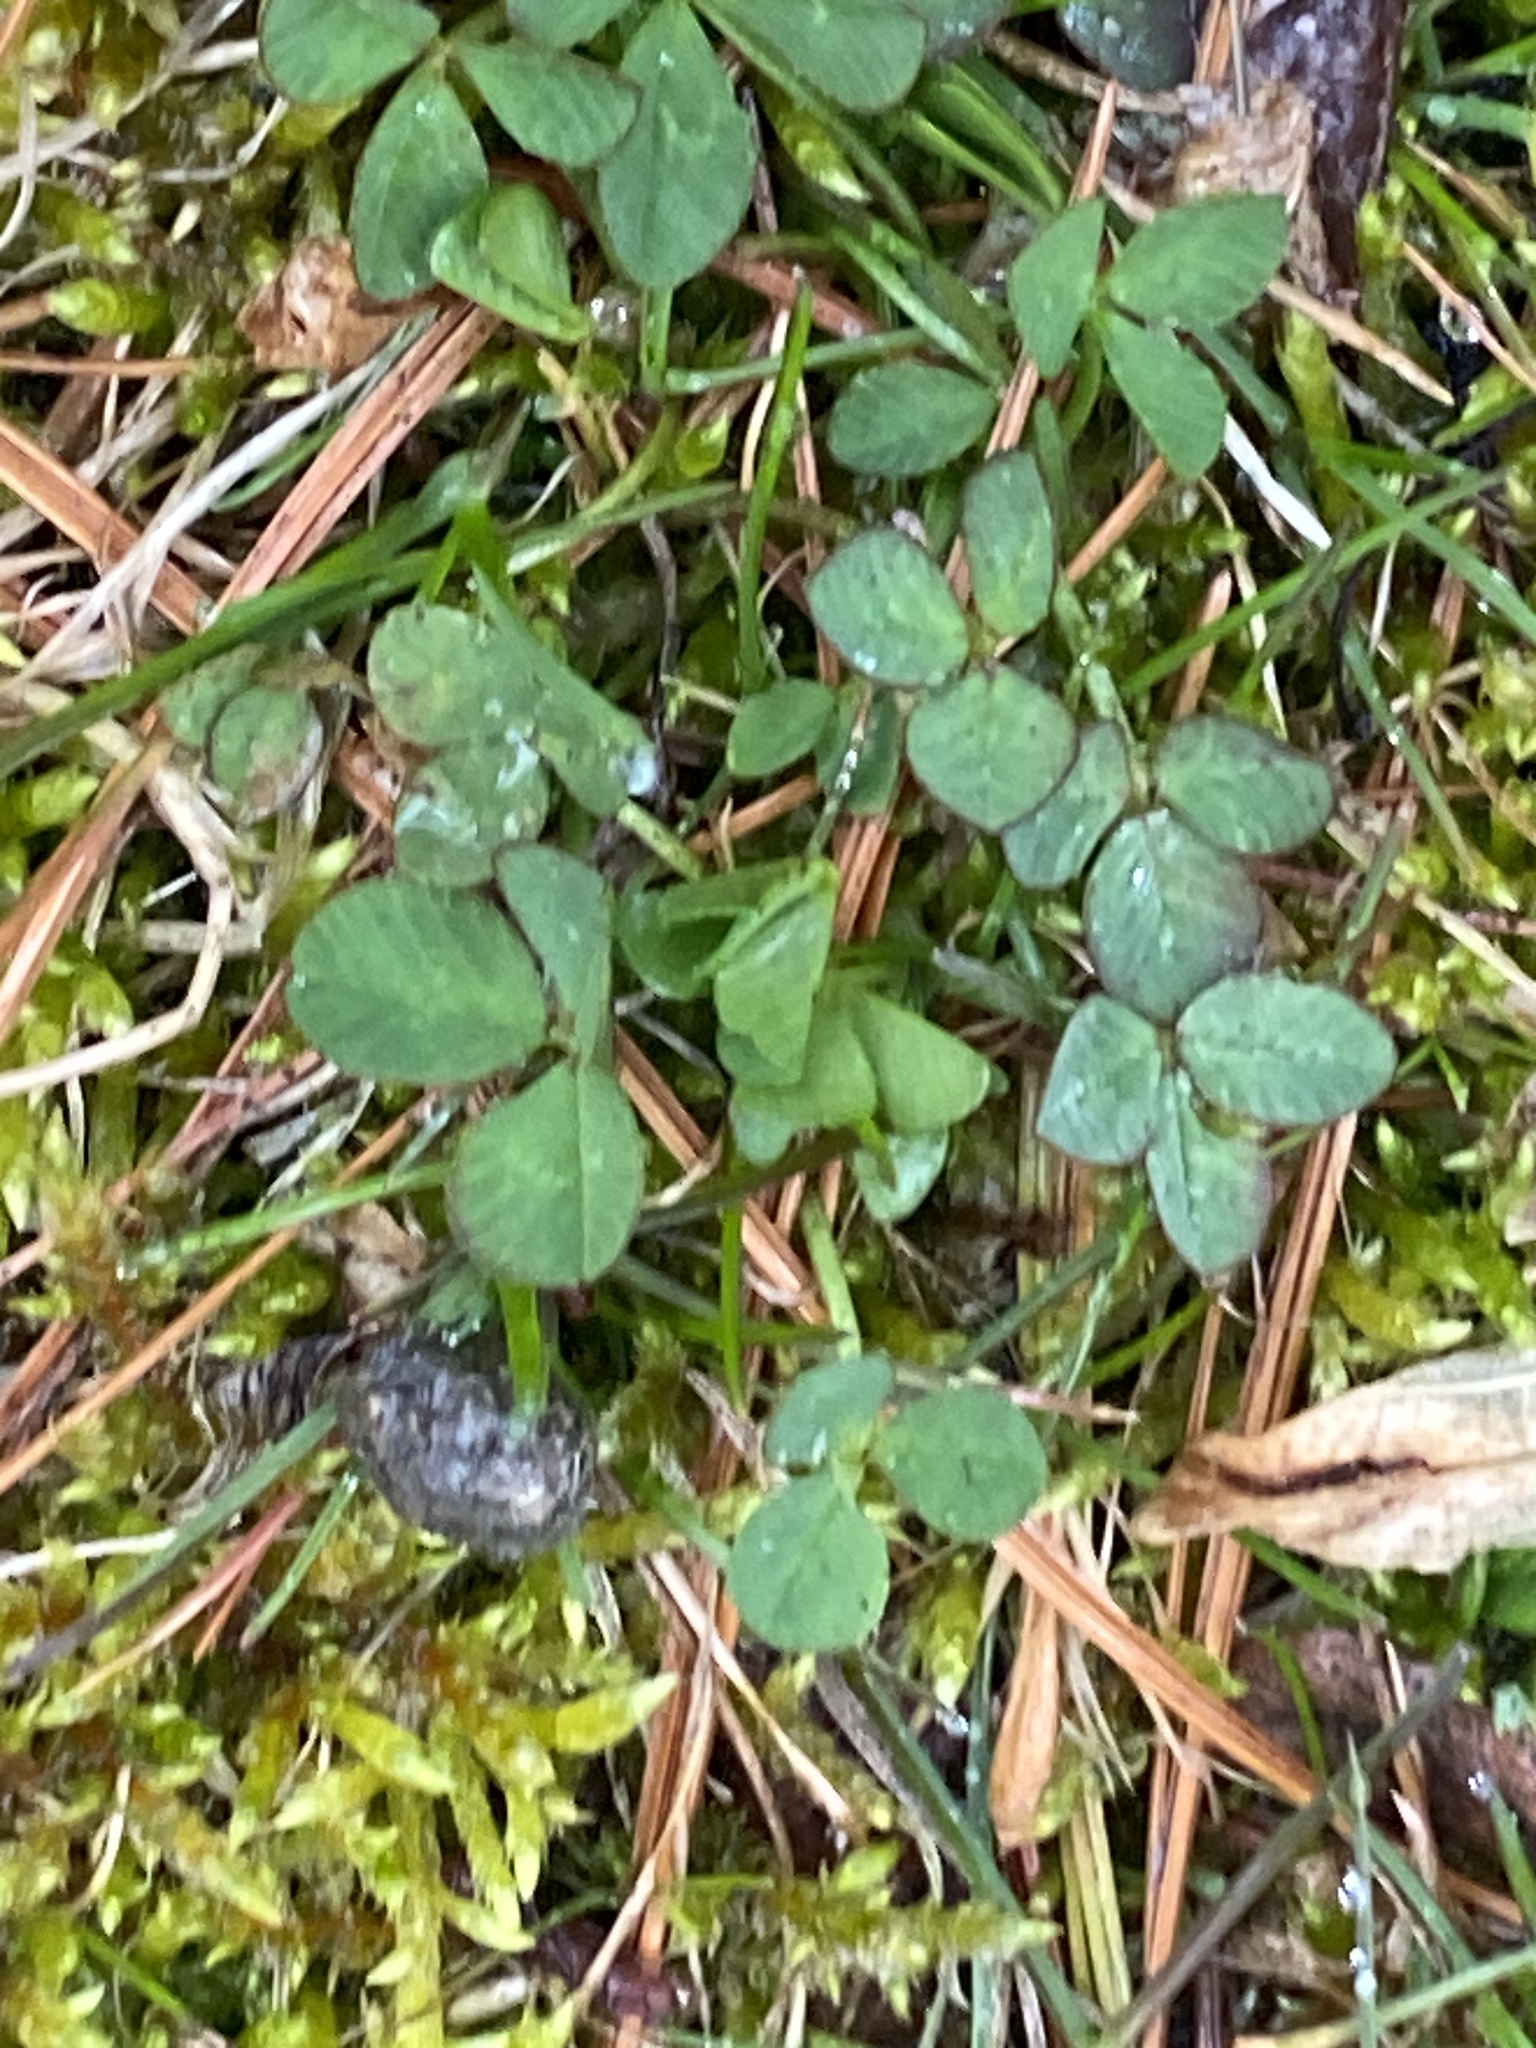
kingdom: Plantae
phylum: Tracheophyta
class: Magnoliopsida
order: Fabales
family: Fabaceae
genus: Trifolium
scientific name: Trifolium repens
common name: White clover
